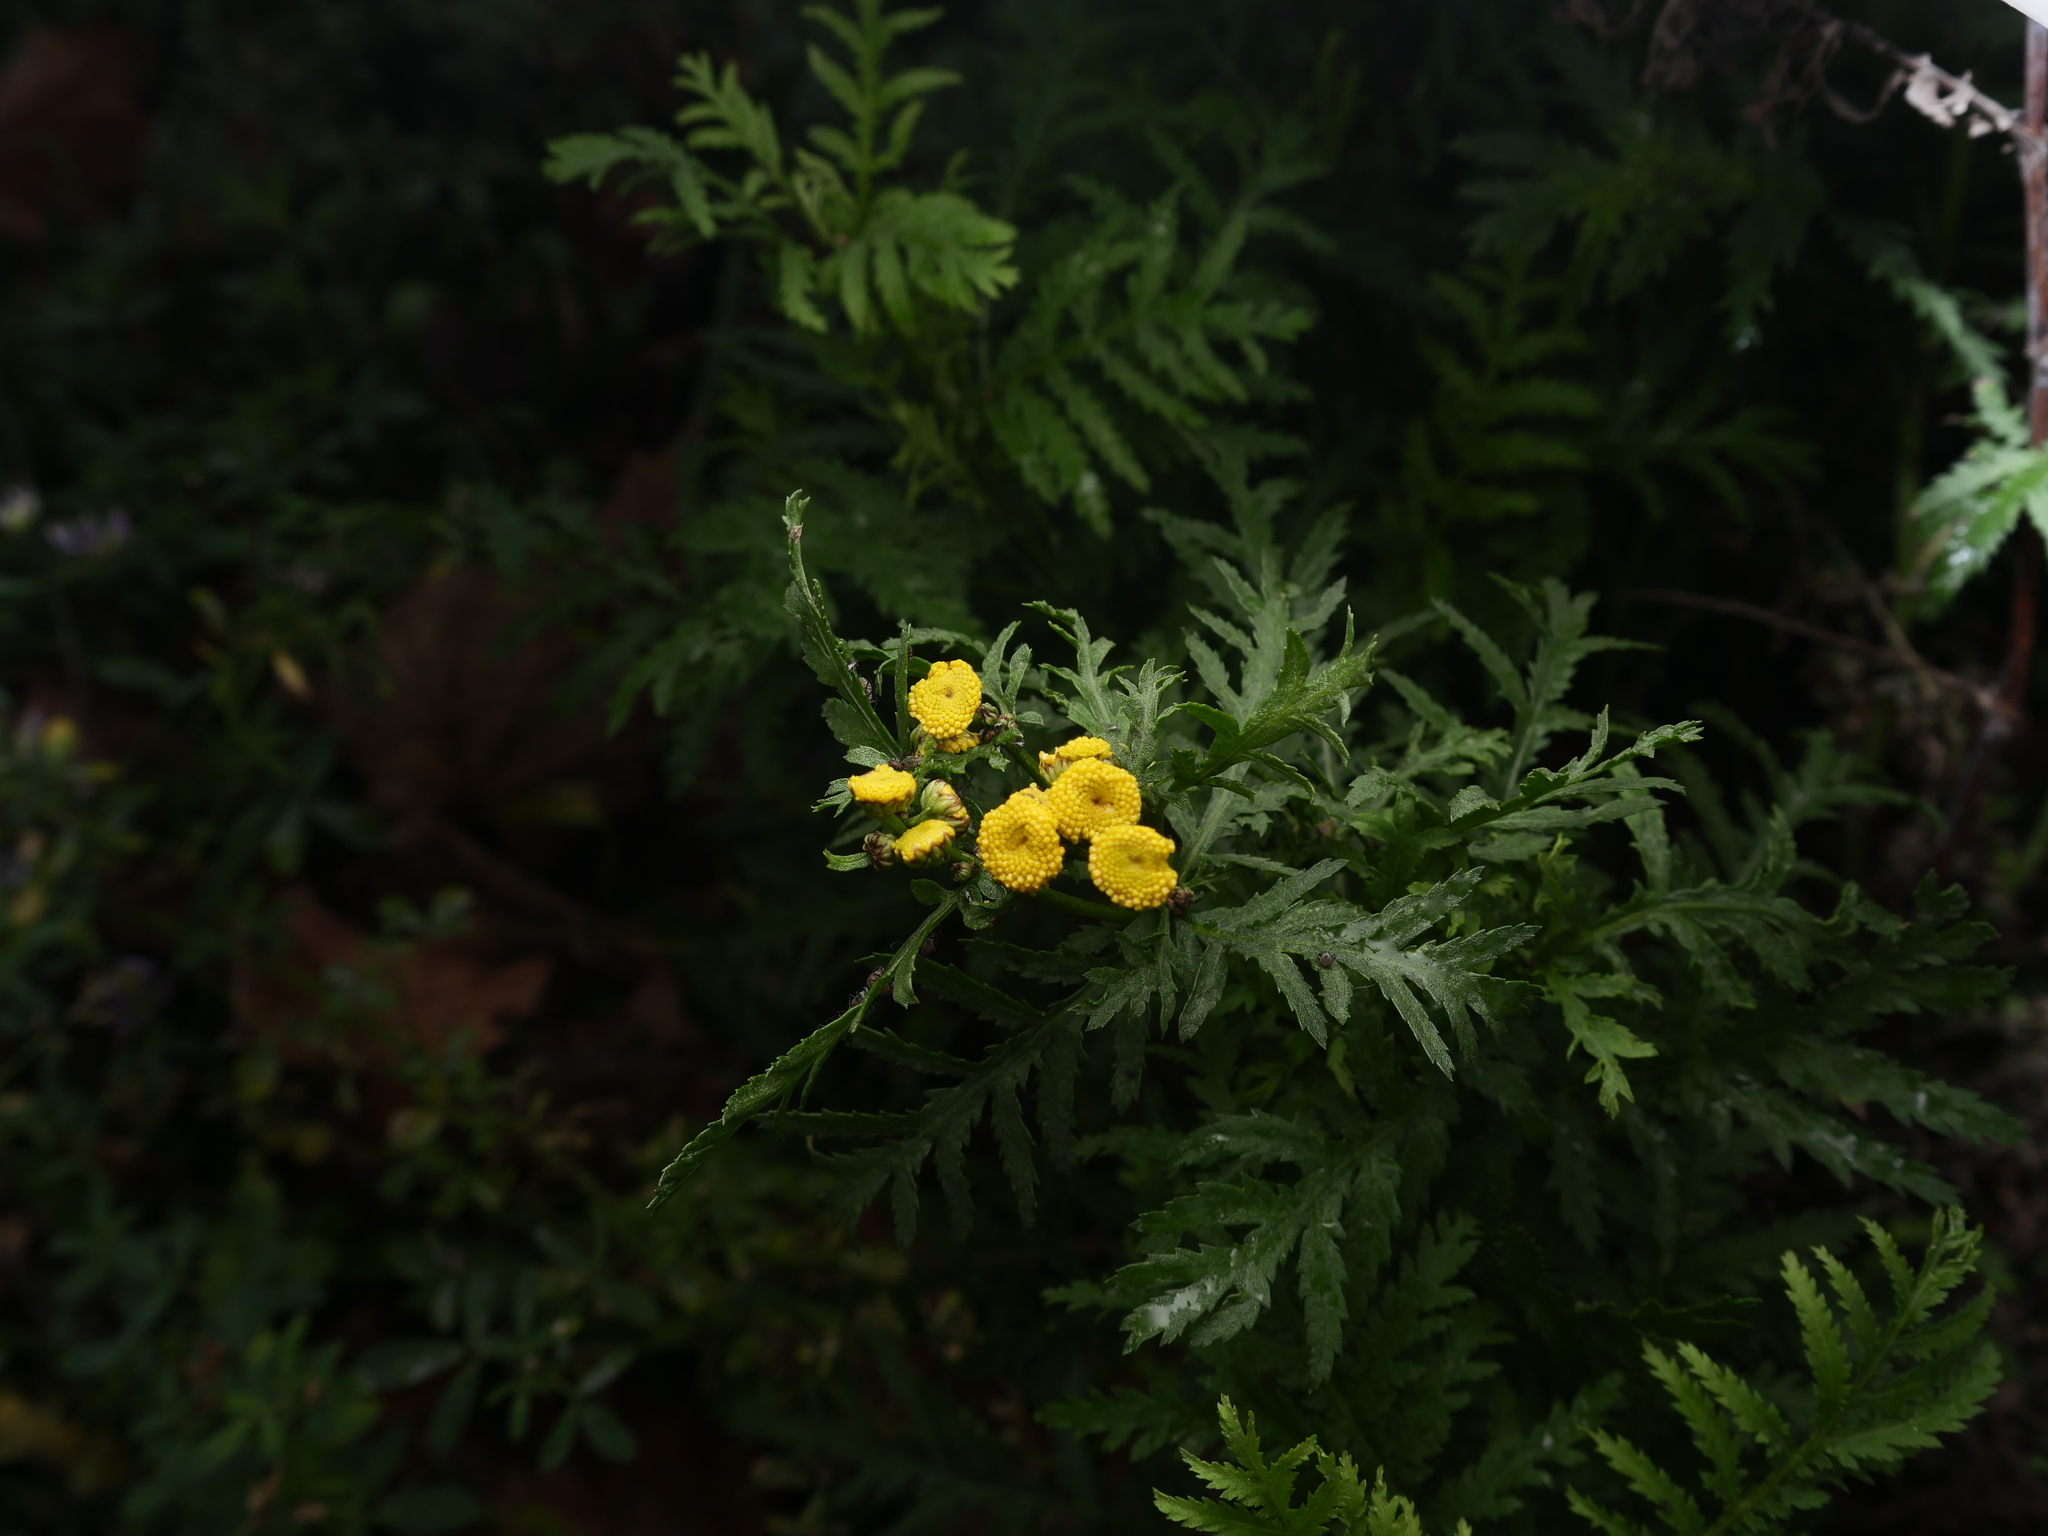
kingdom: Plantae
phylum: Tracheophyta
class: Magnoliopsida
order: Asterales
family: Asteraceae
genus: Tanacetum
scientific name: Tanacetum vulgare
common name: Common tansy
